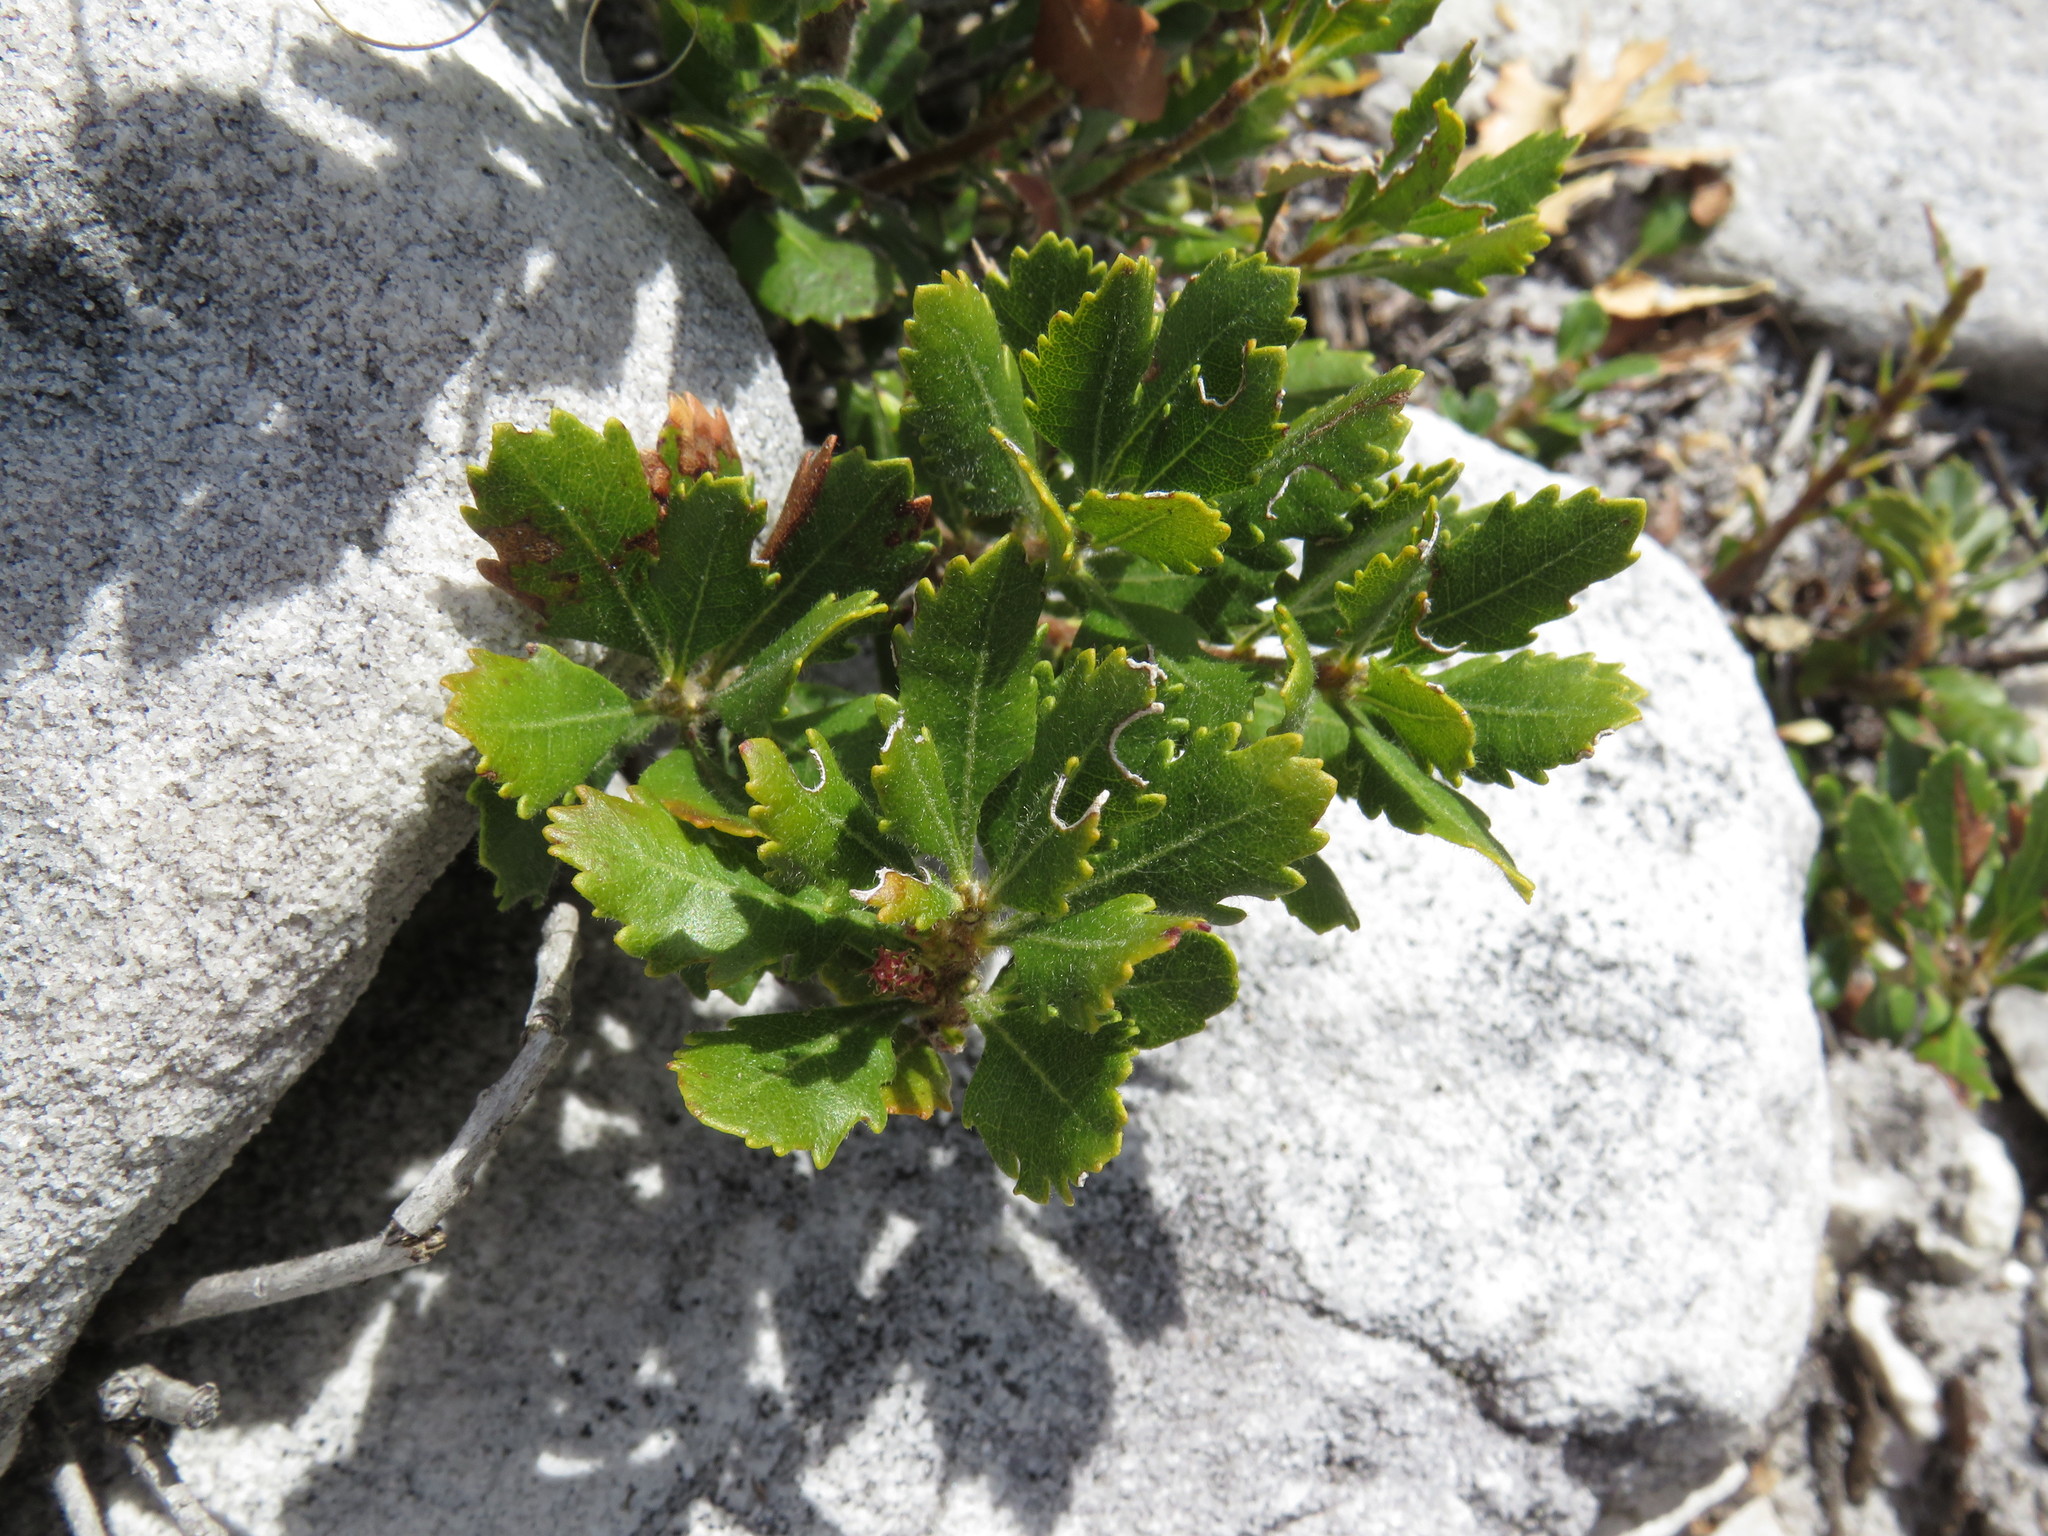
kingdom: Plantae
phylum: Tracheophyta
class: Magnoliopsida
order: Fagales
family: Myricaceae
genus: Morella
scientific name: Morella diversifolia
